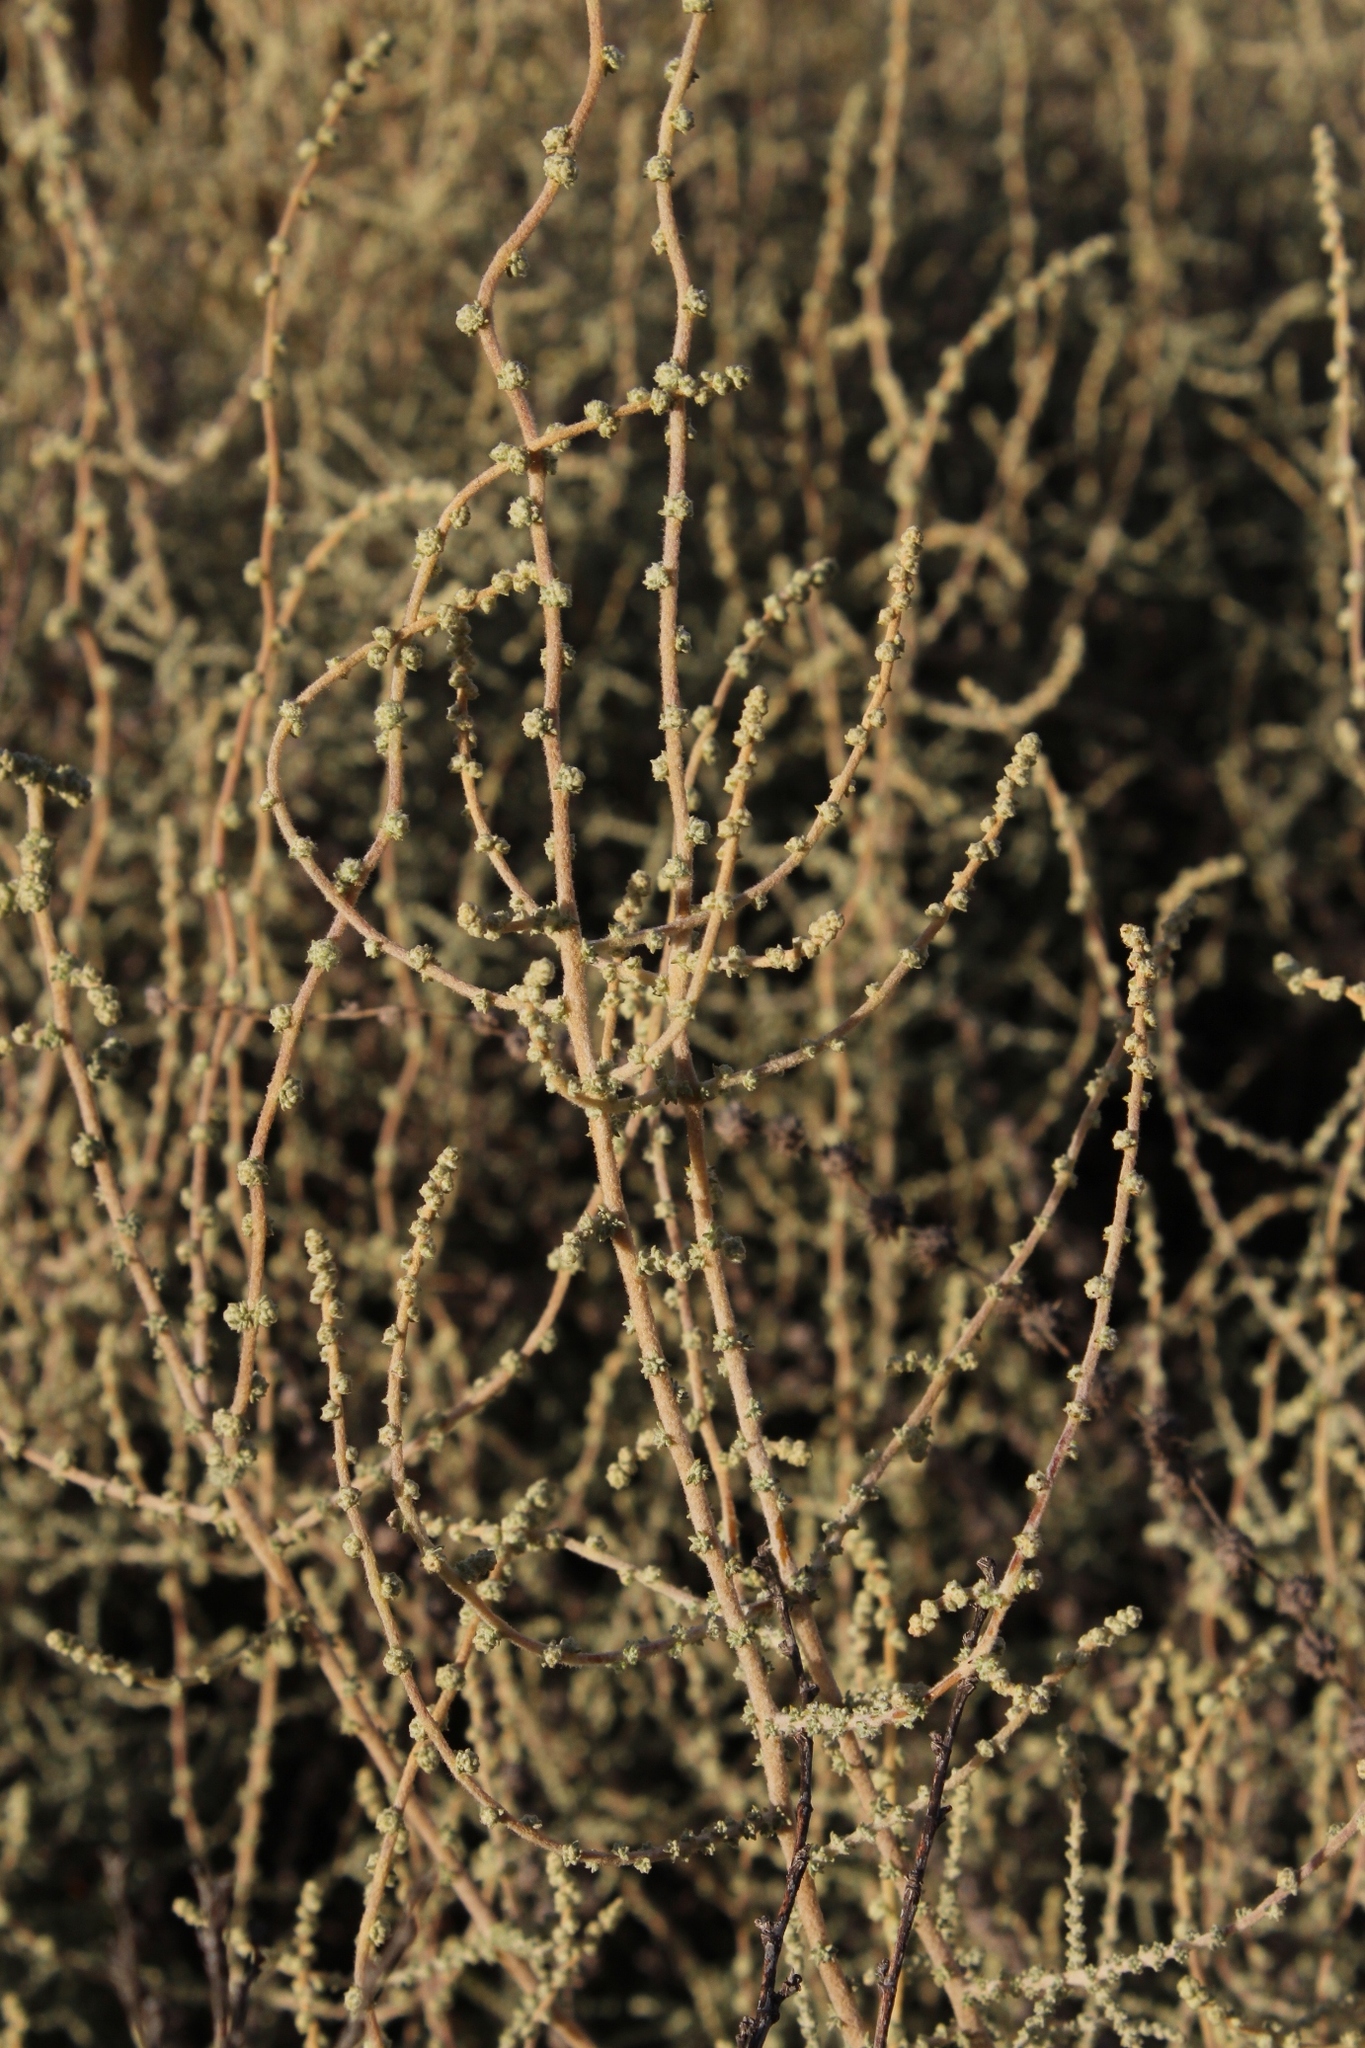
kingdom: Plantae
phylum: Tracheophyta
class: Magnoliopsida
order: Asterales
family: Asteraceae
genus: Seriphium
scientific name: Seriphium plumosum
